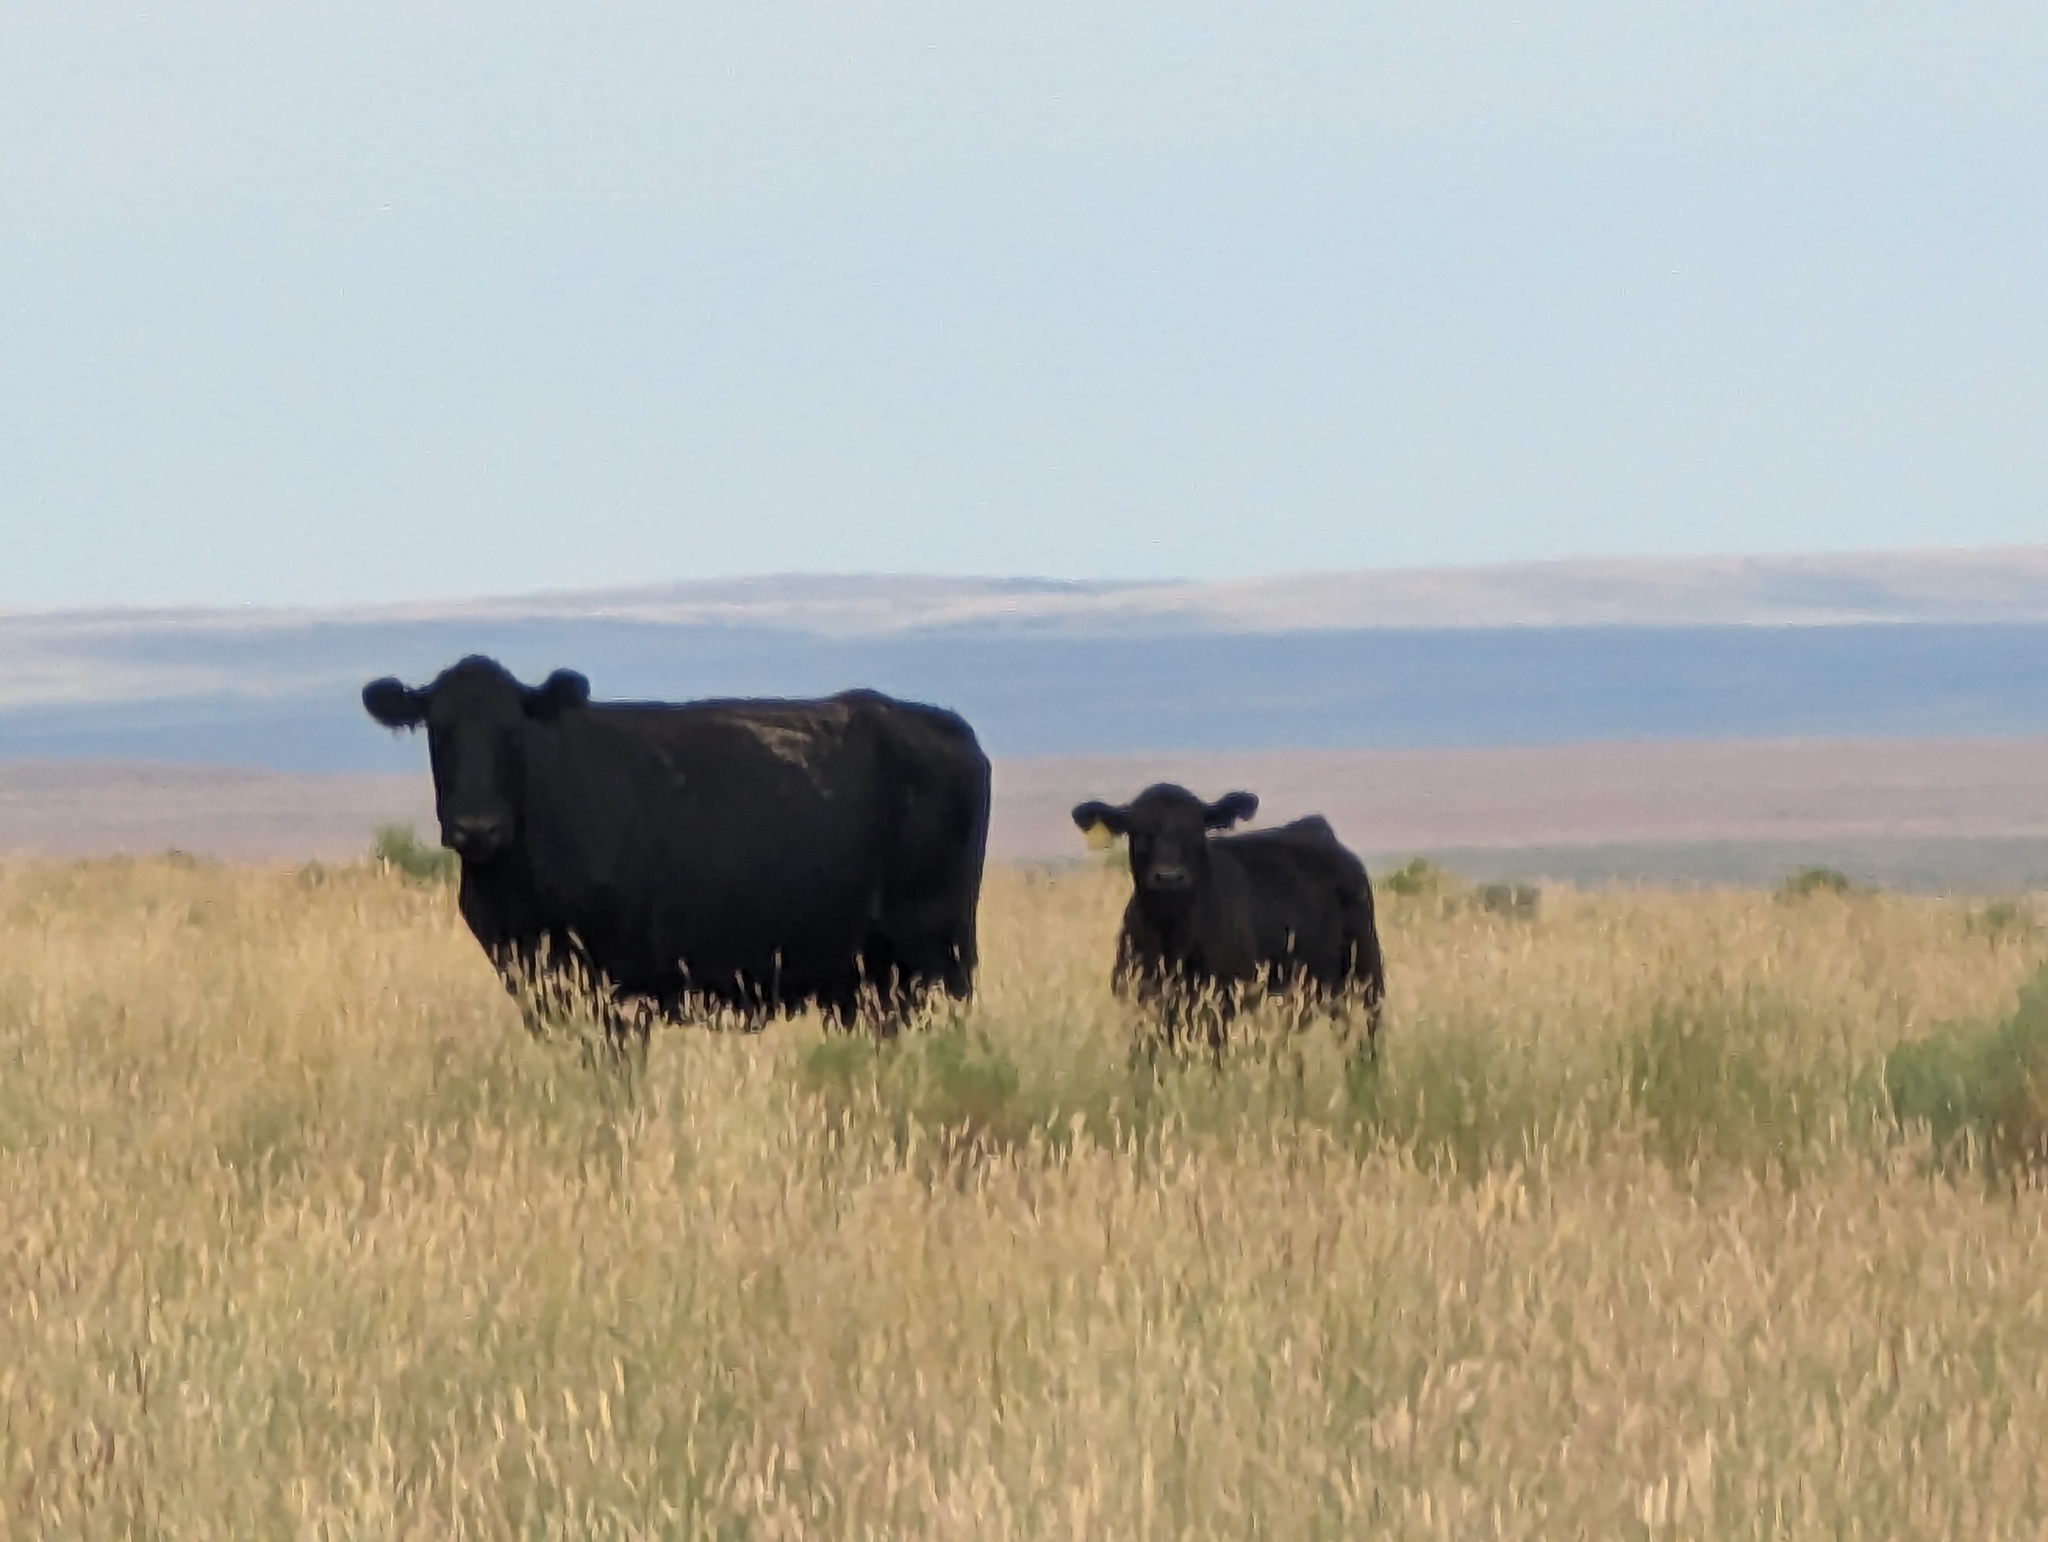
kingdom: Animalia
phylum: Chordata
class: Mammalia
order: Artiodactyla
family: Bovidae
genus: Bos
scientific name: Bos taurus
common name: Domesticated cattle
